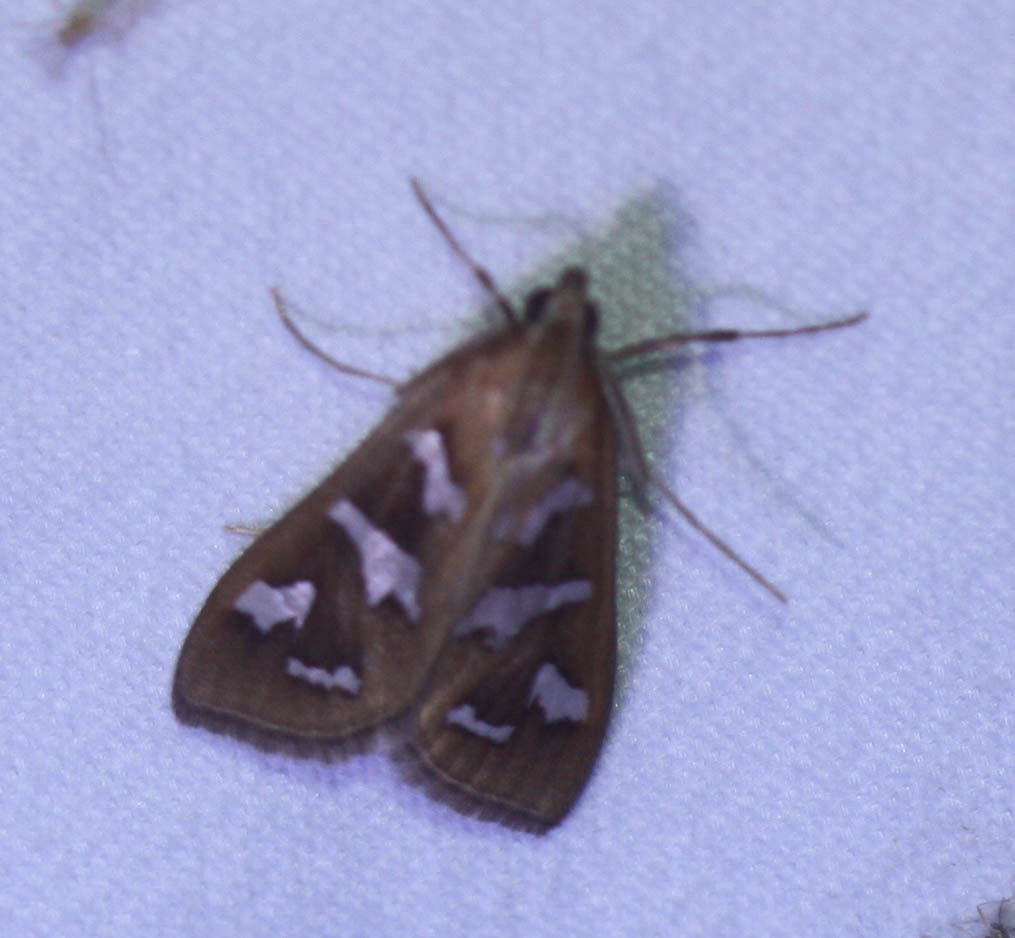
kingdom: Animalia
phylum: Arthropoda
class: Insecta
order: Lepidoptera
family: Crambidae
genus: Diastictis
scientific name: Diastictis fracturalis
